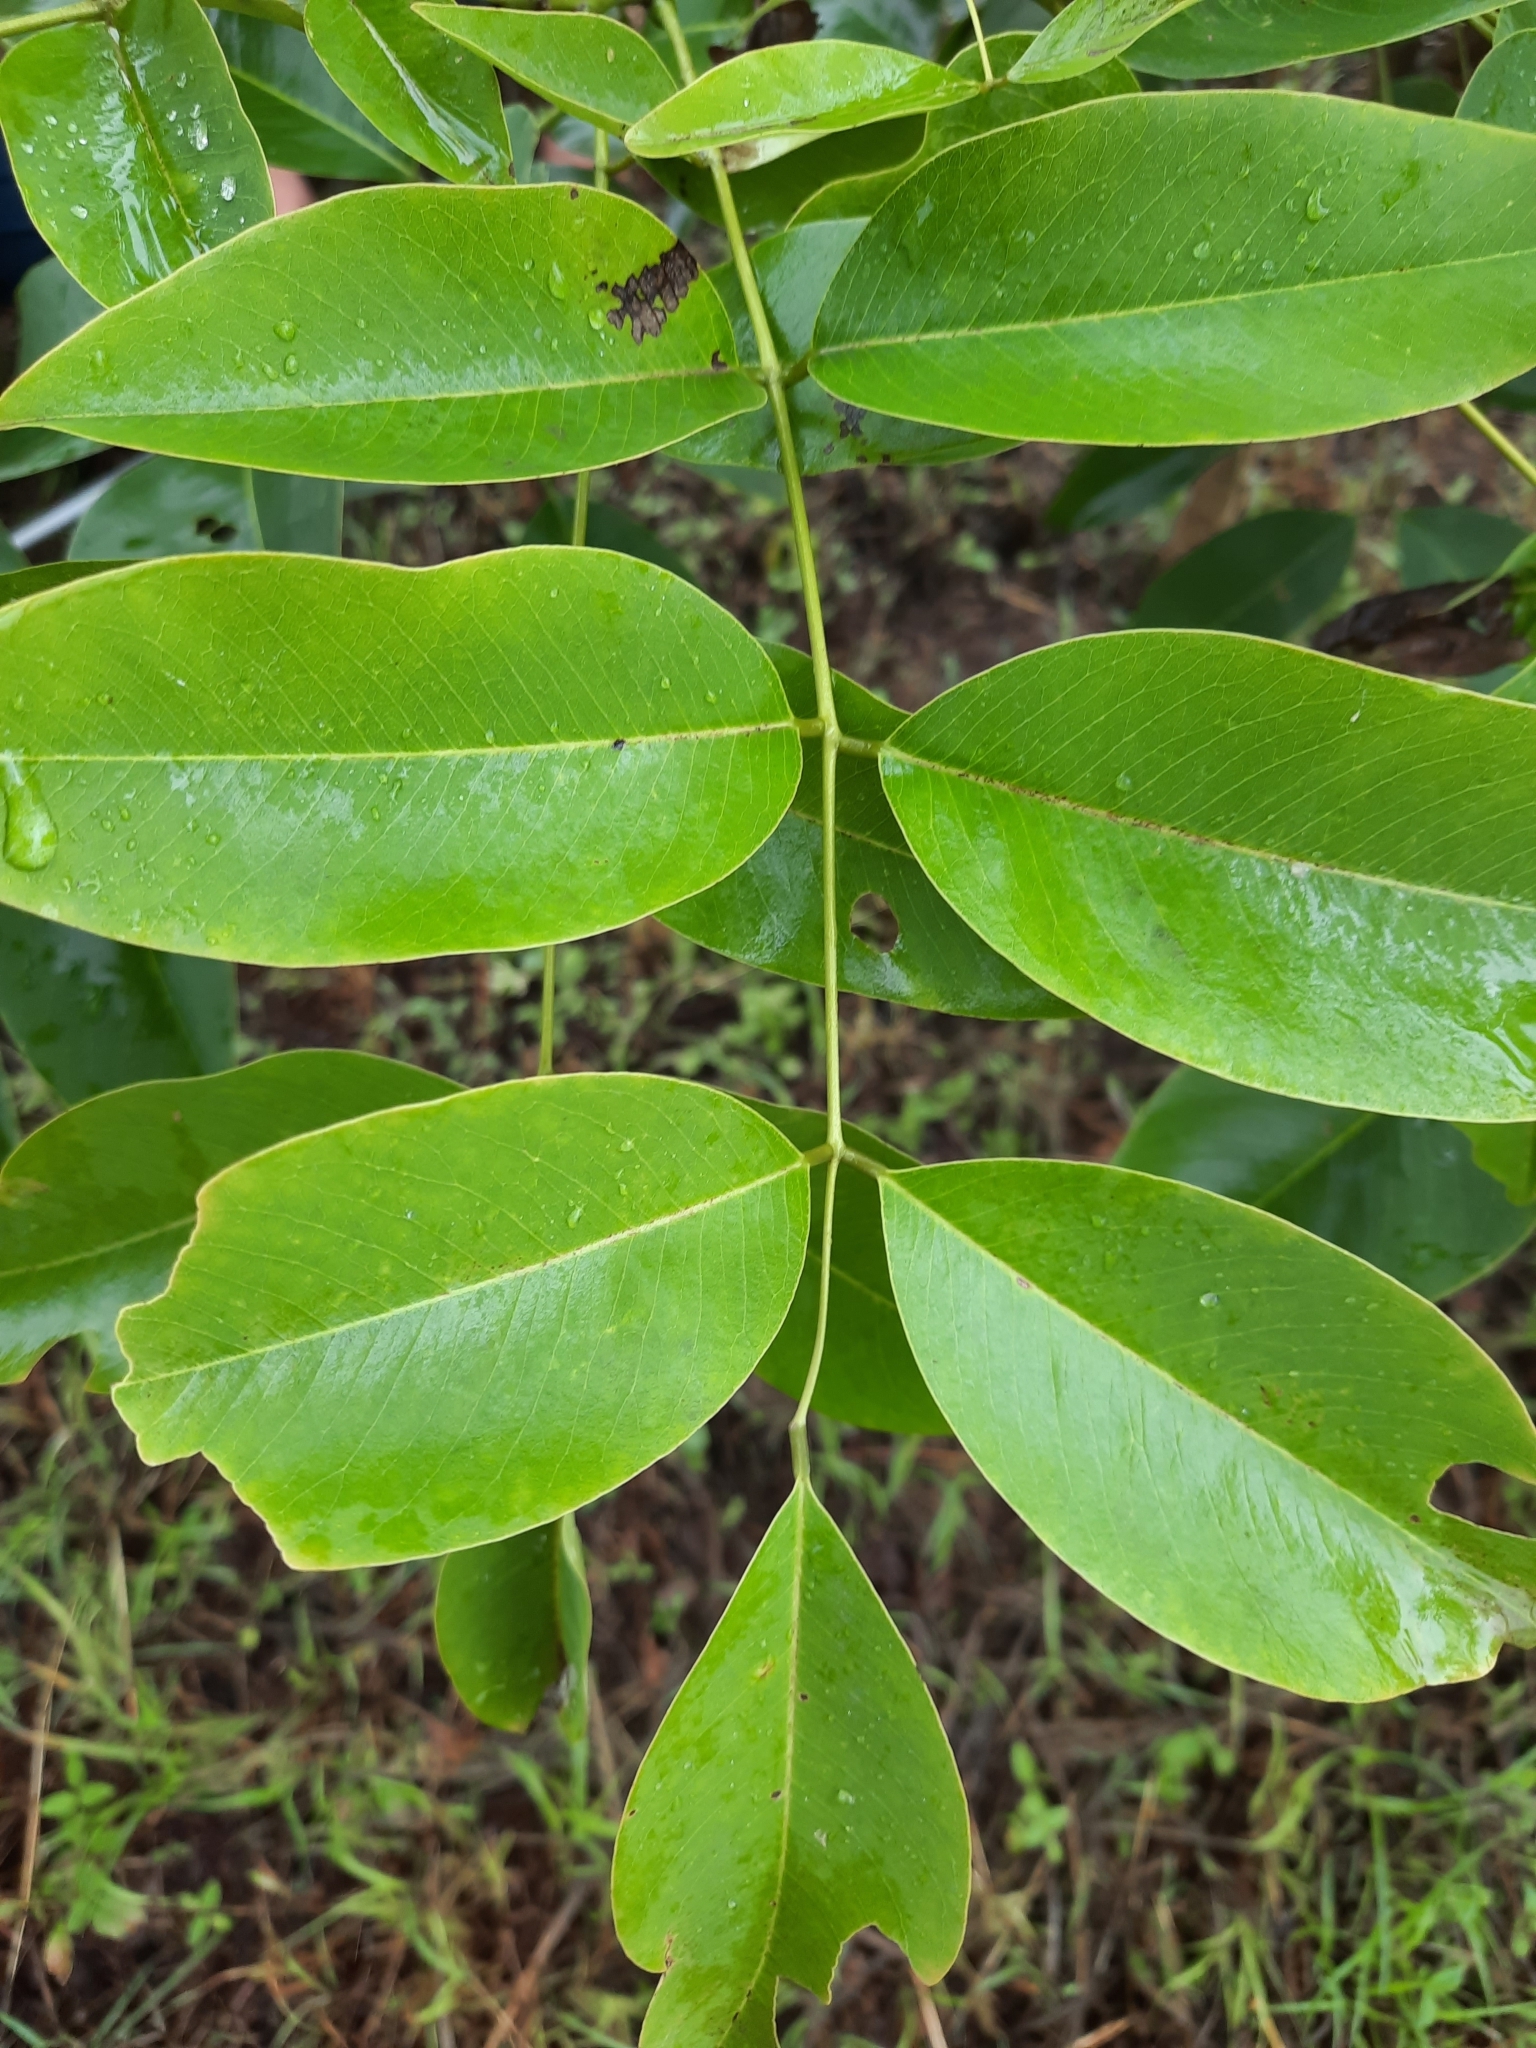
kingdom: Plantae
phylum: Tracheophyta
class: Magnoliopsida
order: Fabales
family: Fabaceae
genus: Cassia
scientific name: Cassia fistula
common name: Golden shower
